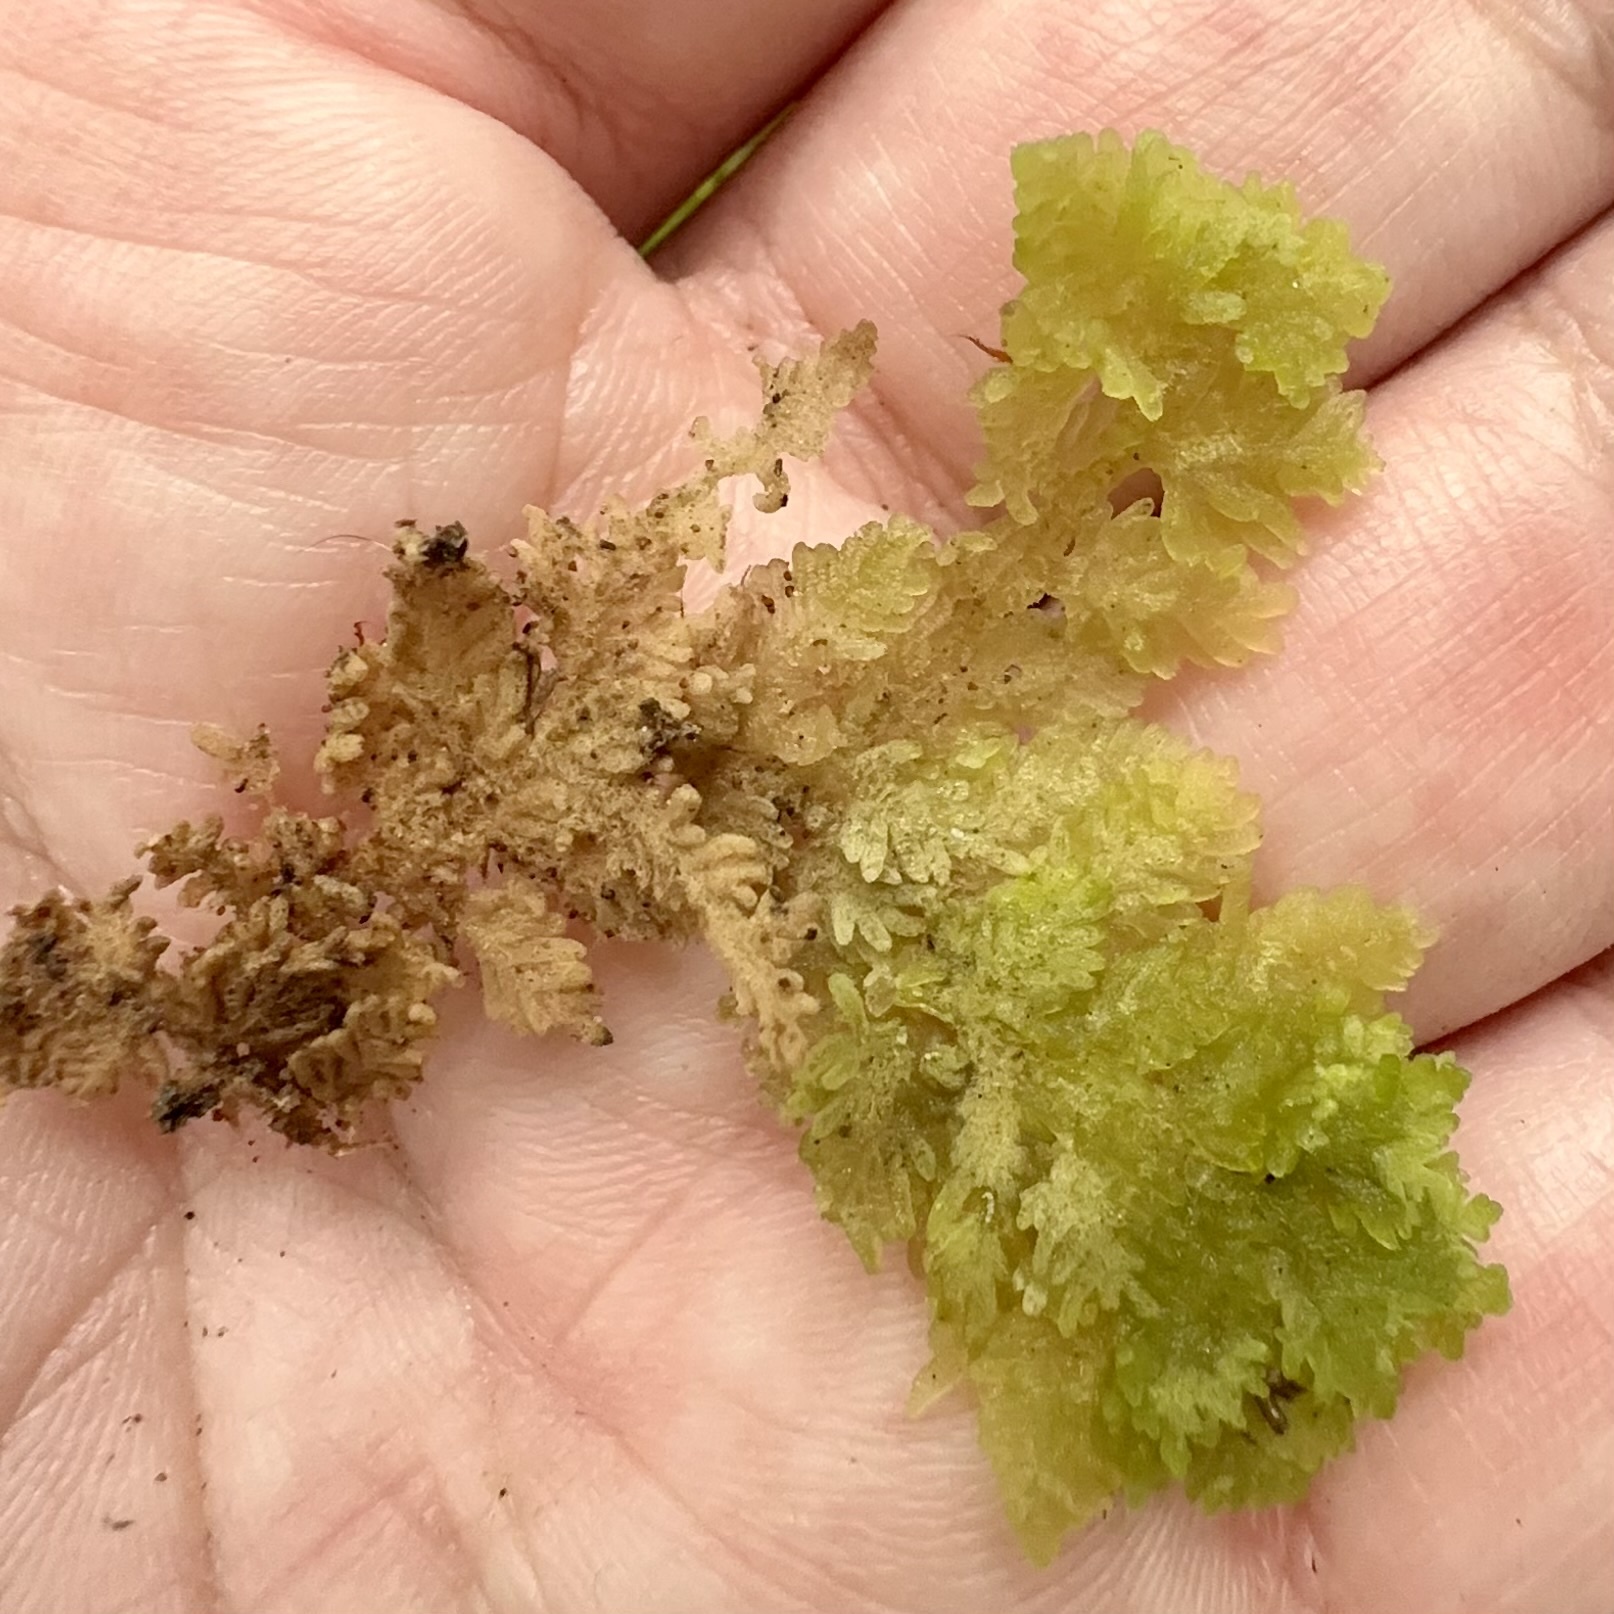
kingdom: Plantae
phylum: Marchantiophyta
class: Jungermanniopsida
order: Jungermanniales
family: Trichocoleaceae
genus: Trichocolea
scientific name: Trichocolea mollissima
